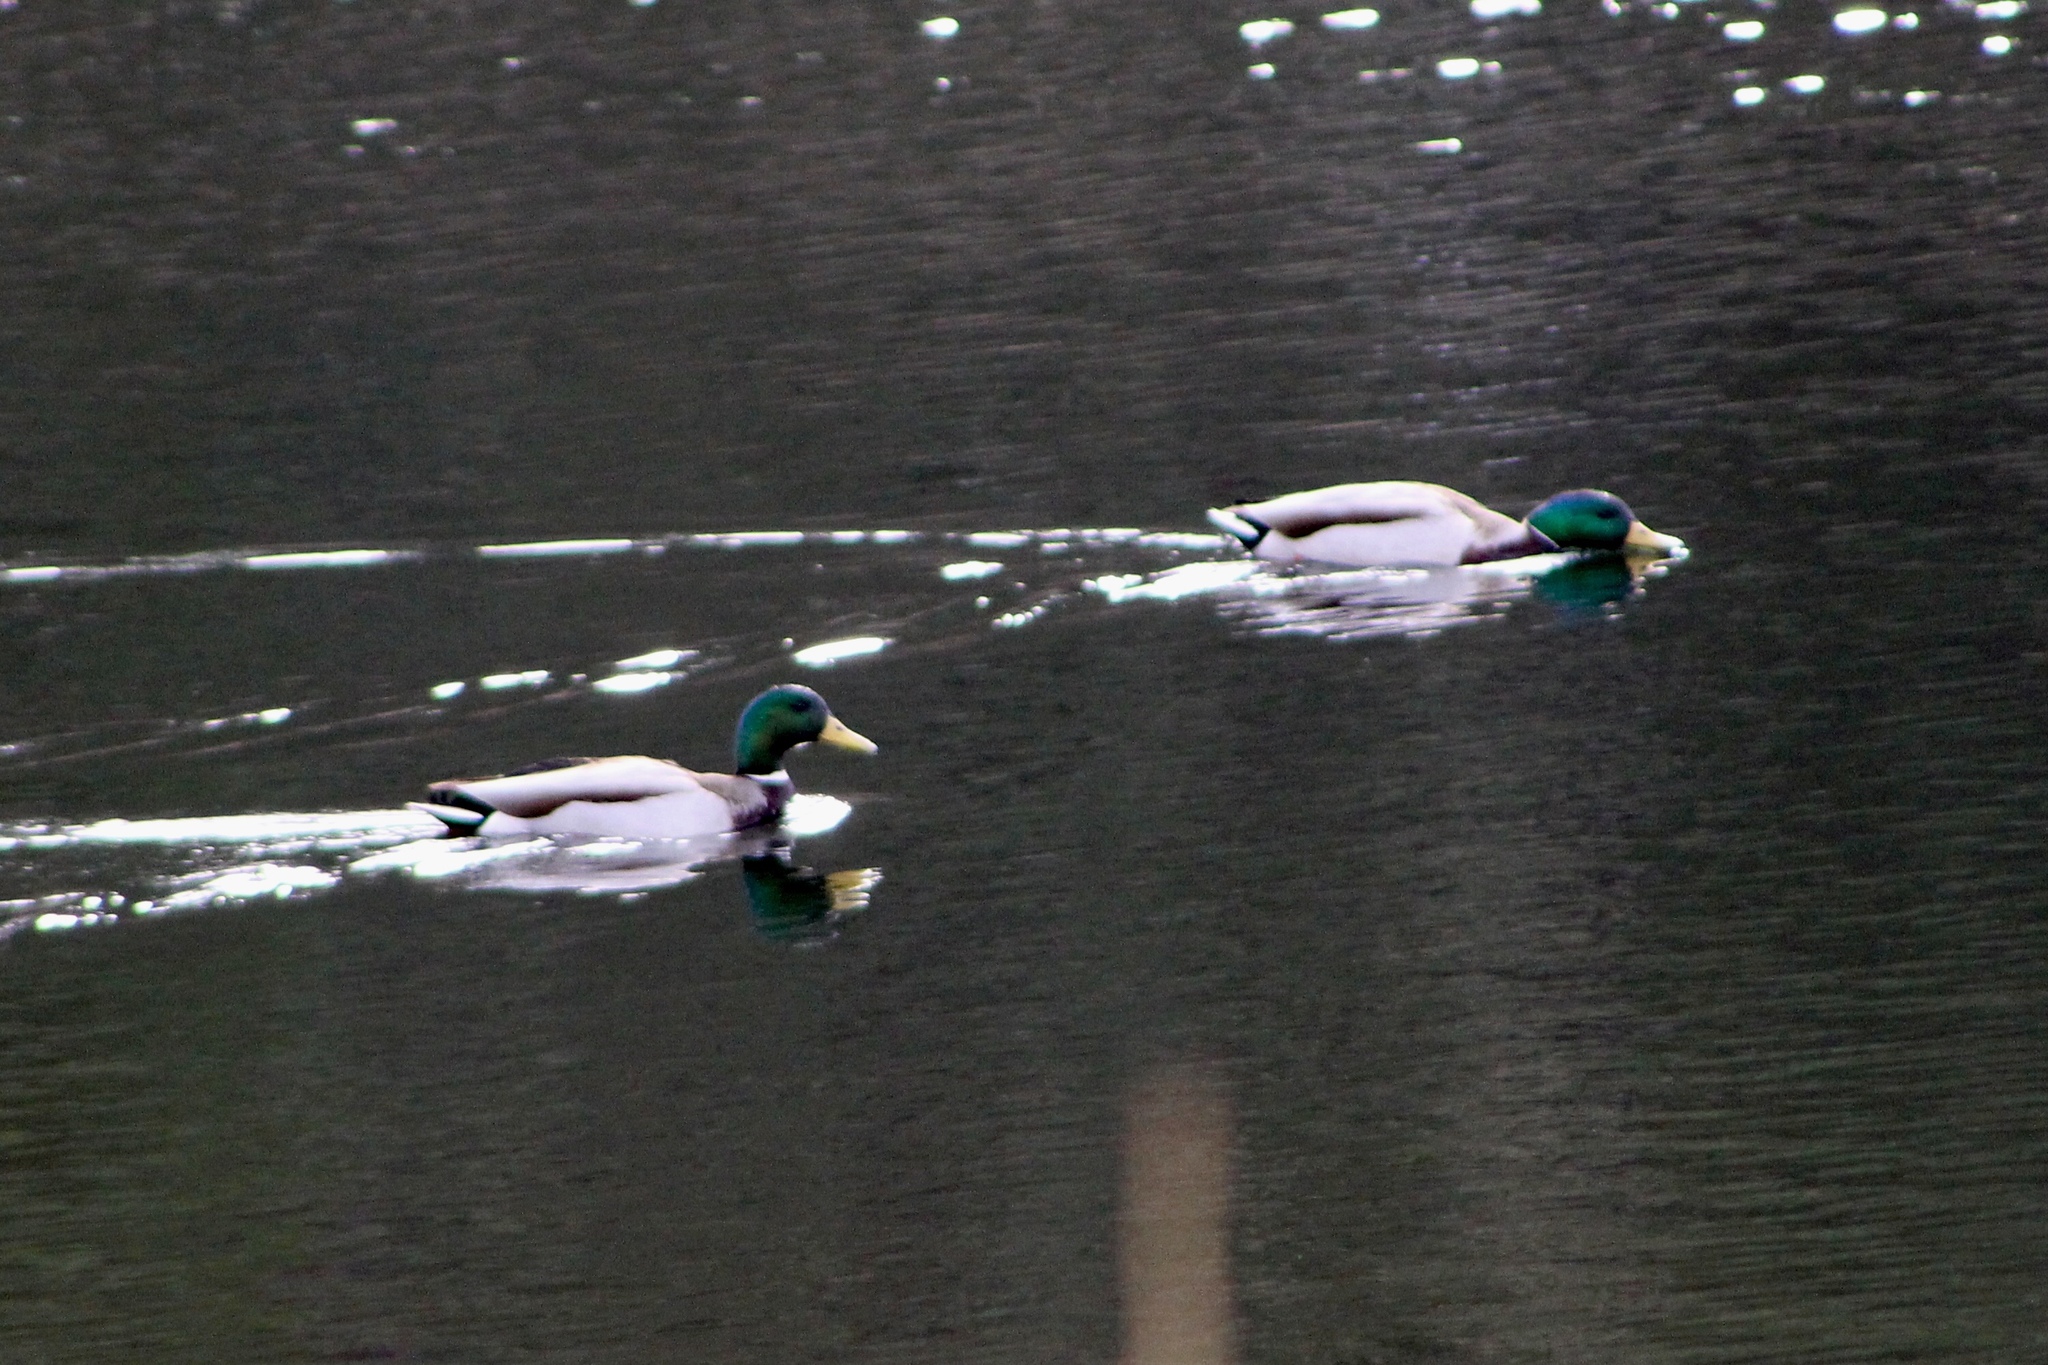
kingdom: Animalia
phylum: Chordata
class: Aves
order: Anseriformes
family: Anatidae
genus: Anas
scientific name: Anas platyrhynchos
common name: Mallard
